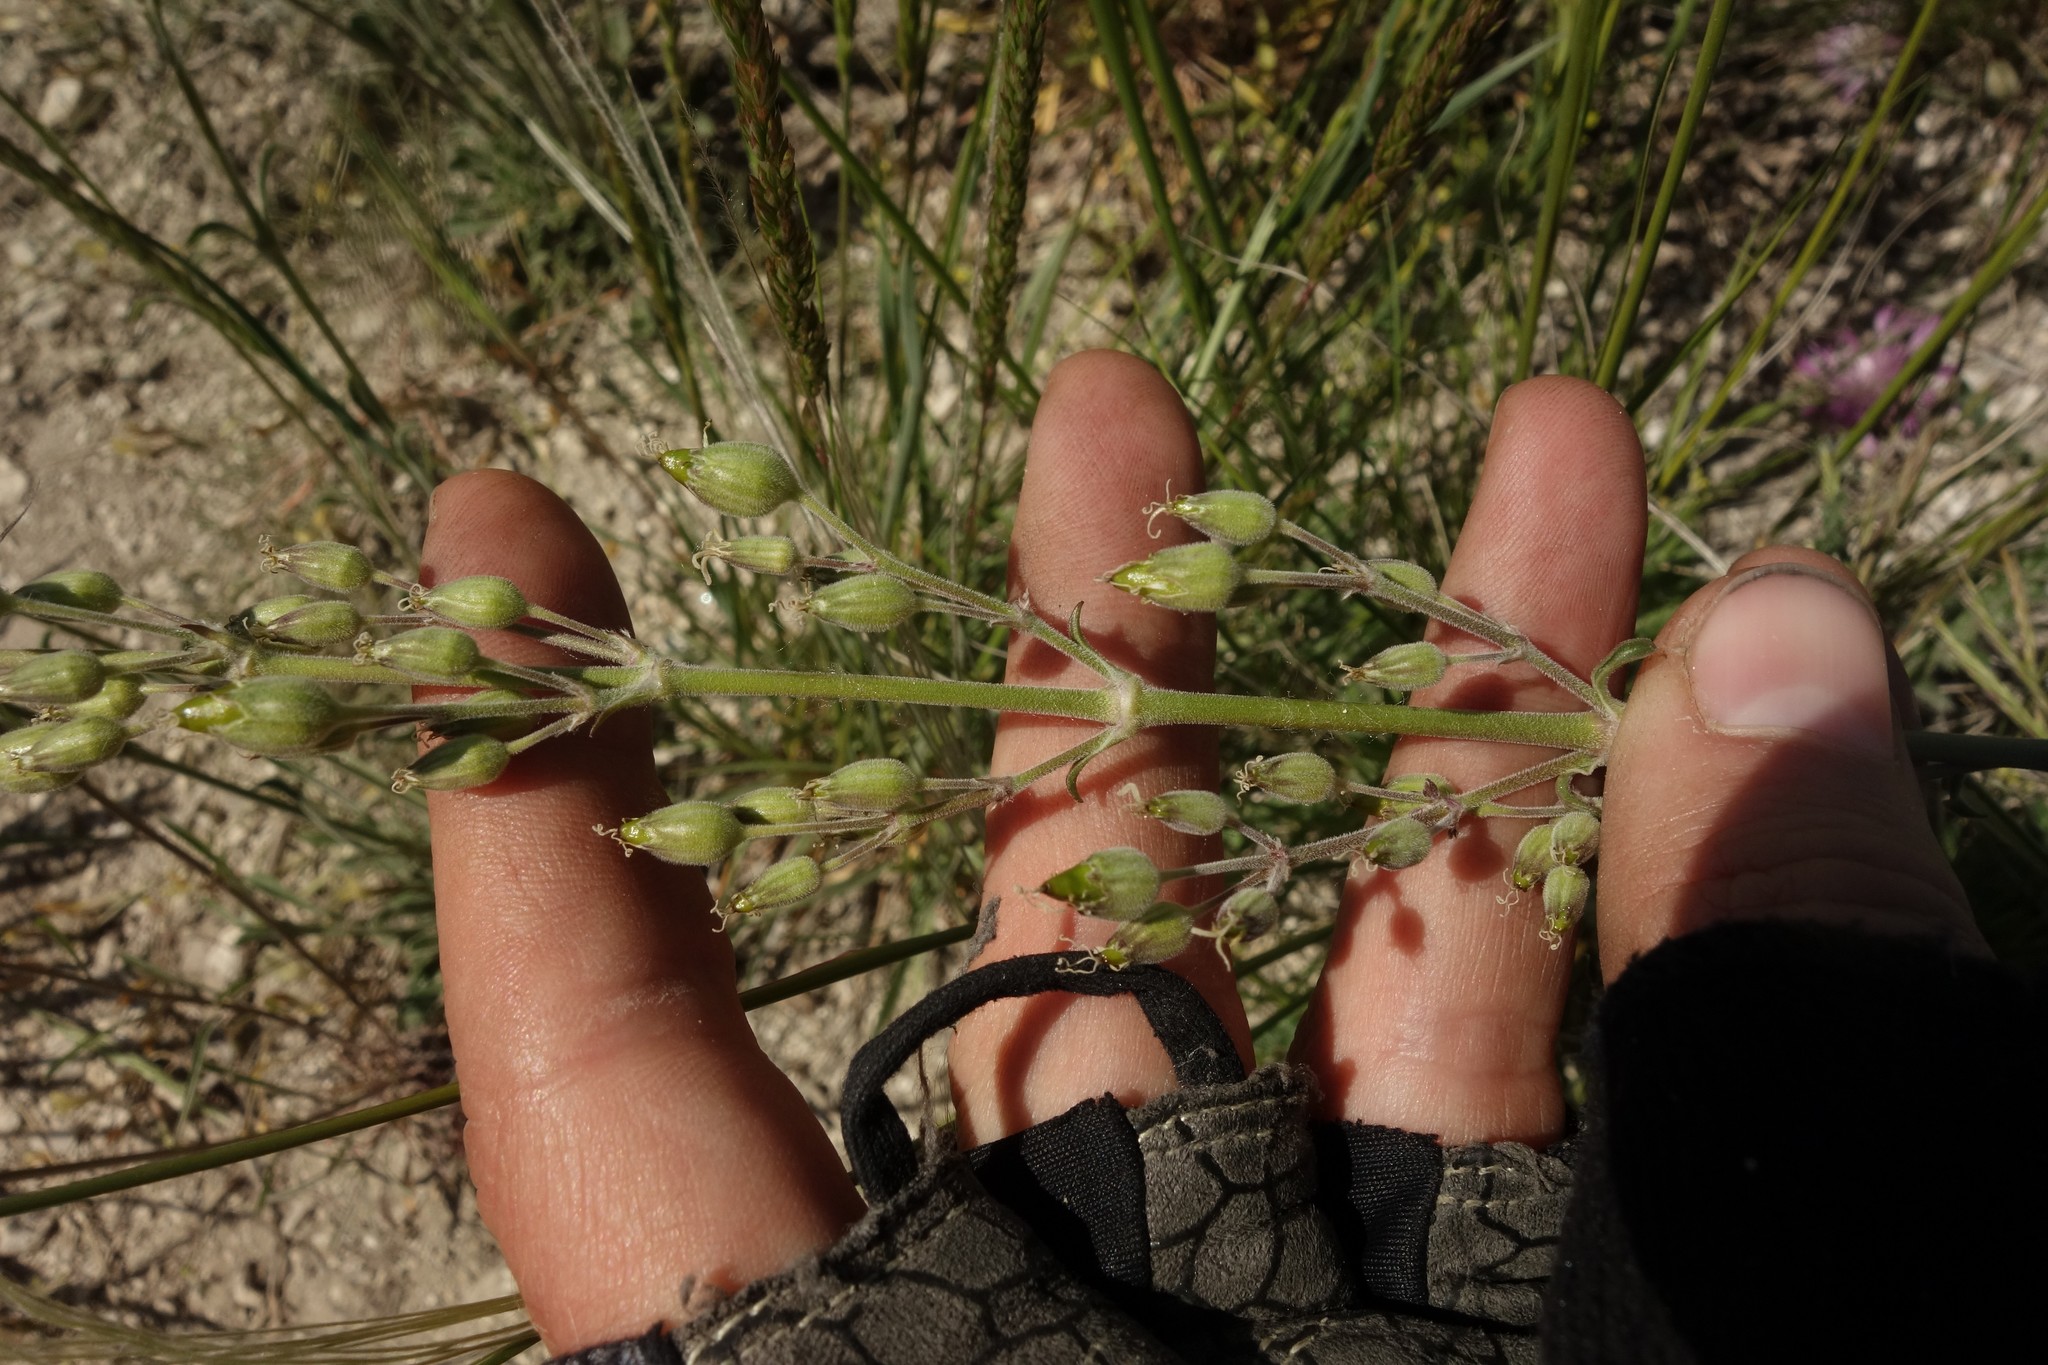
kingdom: Plantae
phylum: Tracheophyta
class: Magnoliopsida
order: Caryophyllales
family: Caryophyllaceae
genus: Silene
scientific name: Silene hellmannii
